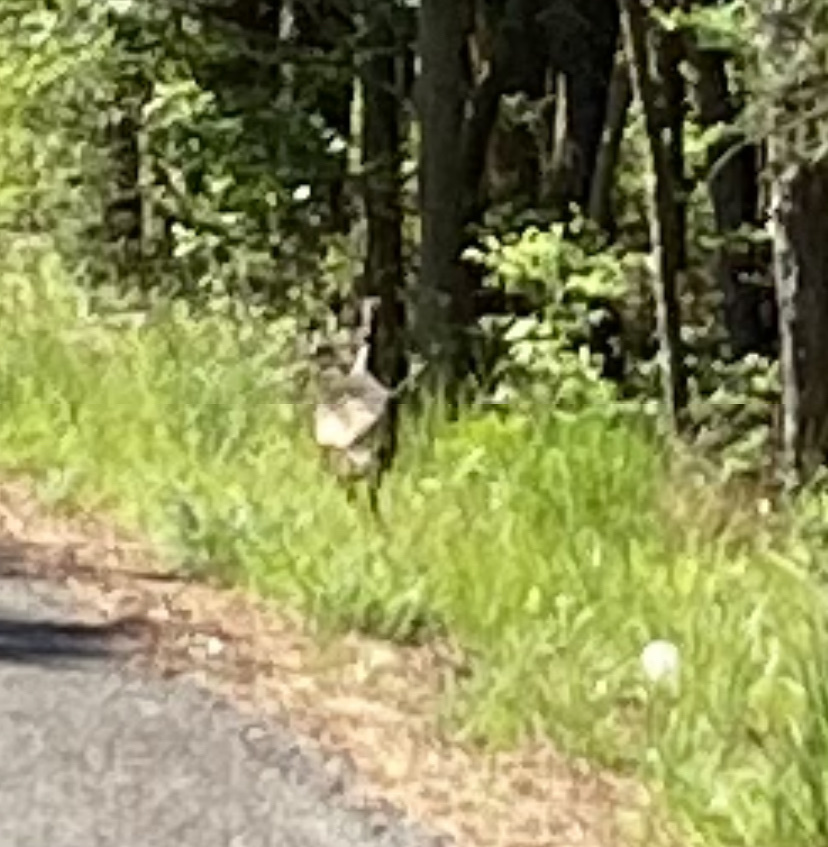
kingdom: Animalia
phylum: Chordata
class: Aves
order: Galliformes
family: Phasianidae
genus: Meleagris
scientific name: Meleagris gallopavo
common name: Wild turkey
